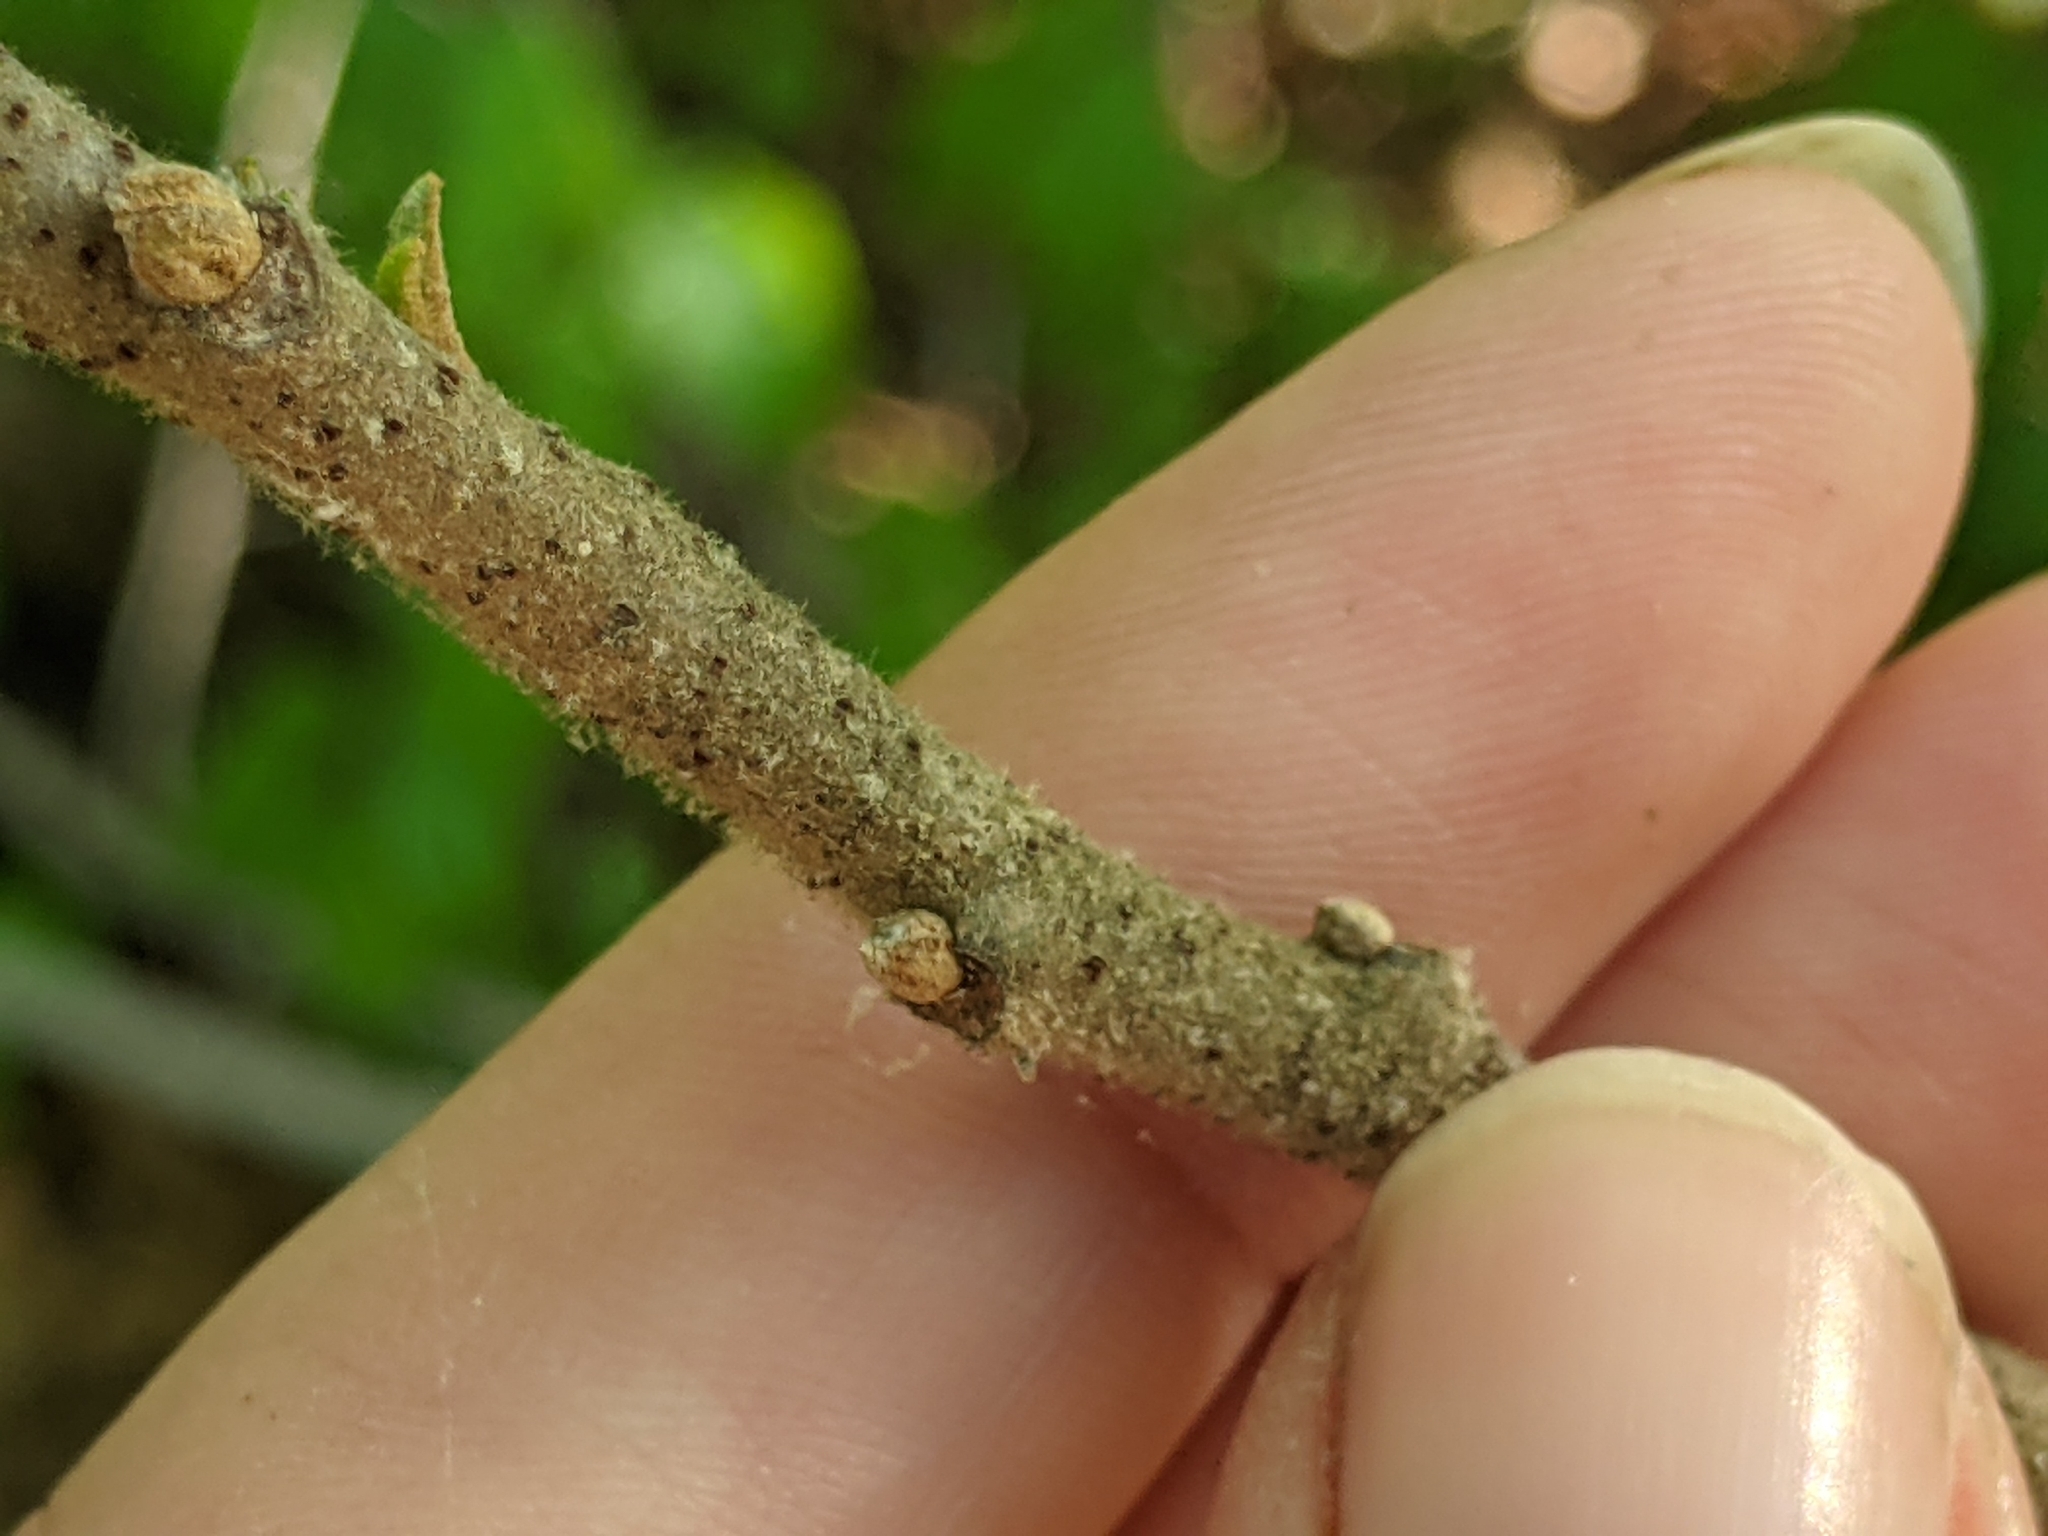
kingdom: Plantae
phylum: Tracheophyta
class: Magnoliopsida
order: Sapindales
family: Anacardiaceae
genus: Rhus
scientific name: Rhus copallina
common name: Shining sumac
